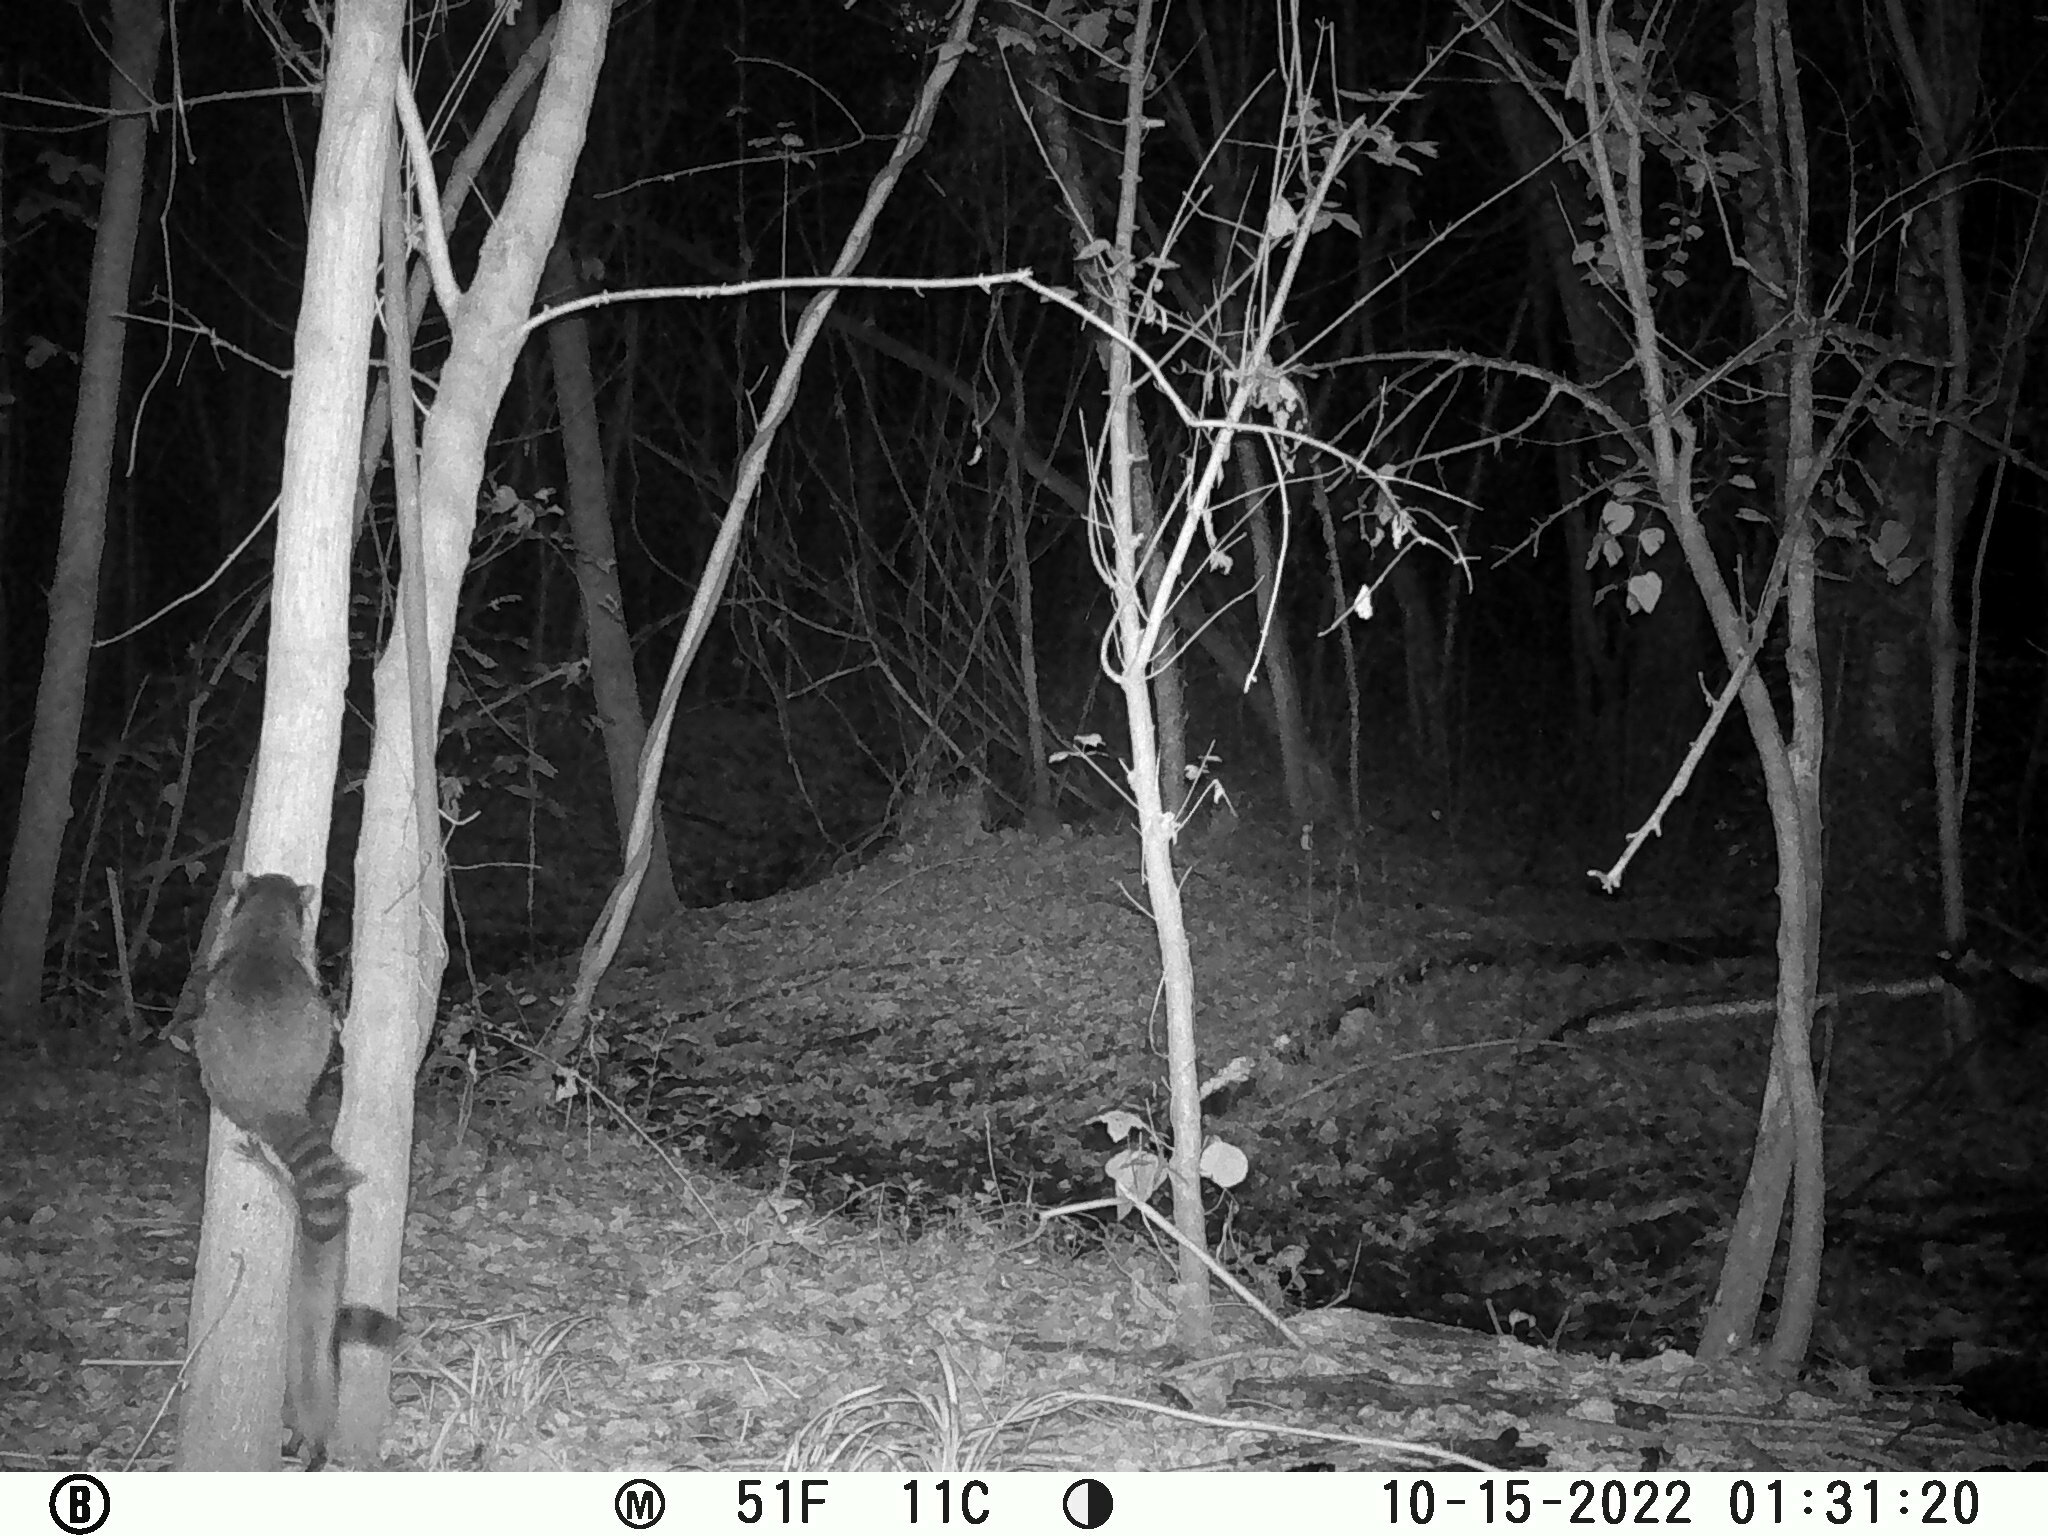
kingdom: Animalia
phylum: Chordata
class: Mammalia
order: Carnivora
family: Procyonidae
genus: Procyon
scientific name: Procyon lotor
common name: Raccoon
